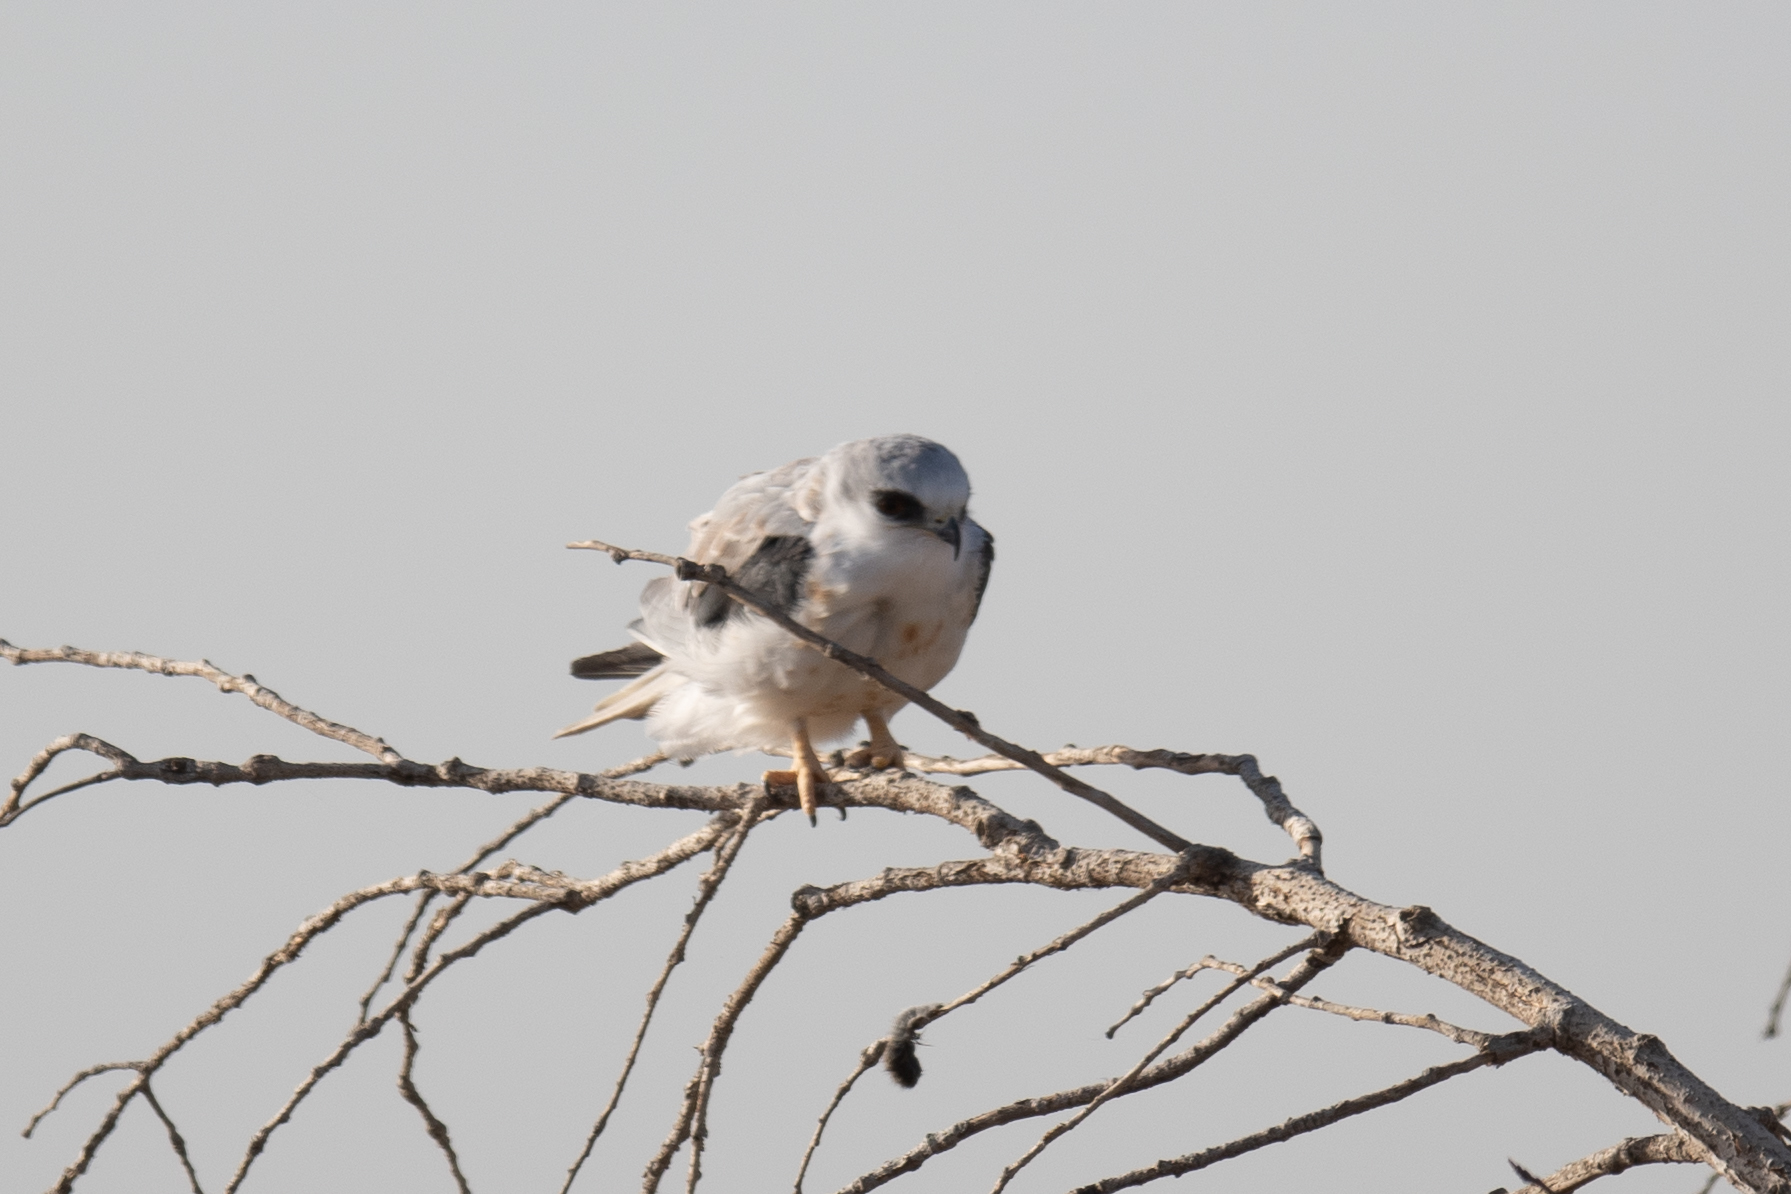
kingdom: Animalia
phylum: Chordata
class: Aves
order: Accipitriformes
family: Accipitridae
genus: Elanus
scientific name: Elanus leucurus
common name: White-tailed kite
